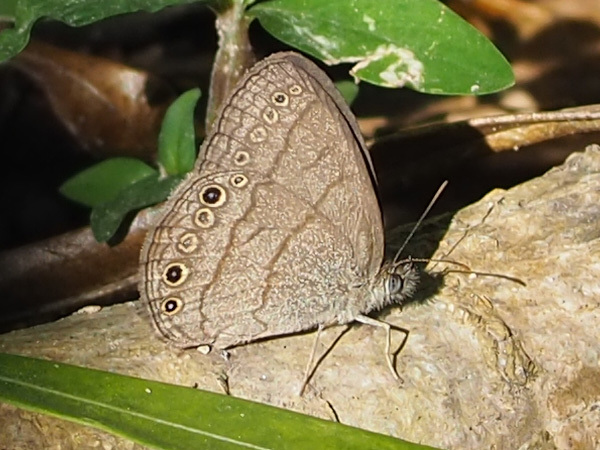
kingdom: Animalia
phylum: Arthropoda
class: Insecta
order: Lepidoptera
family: Nymphalidae
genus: Hermeuptychia
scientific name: Hermeuptychia hermes
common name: Hermes satyr
